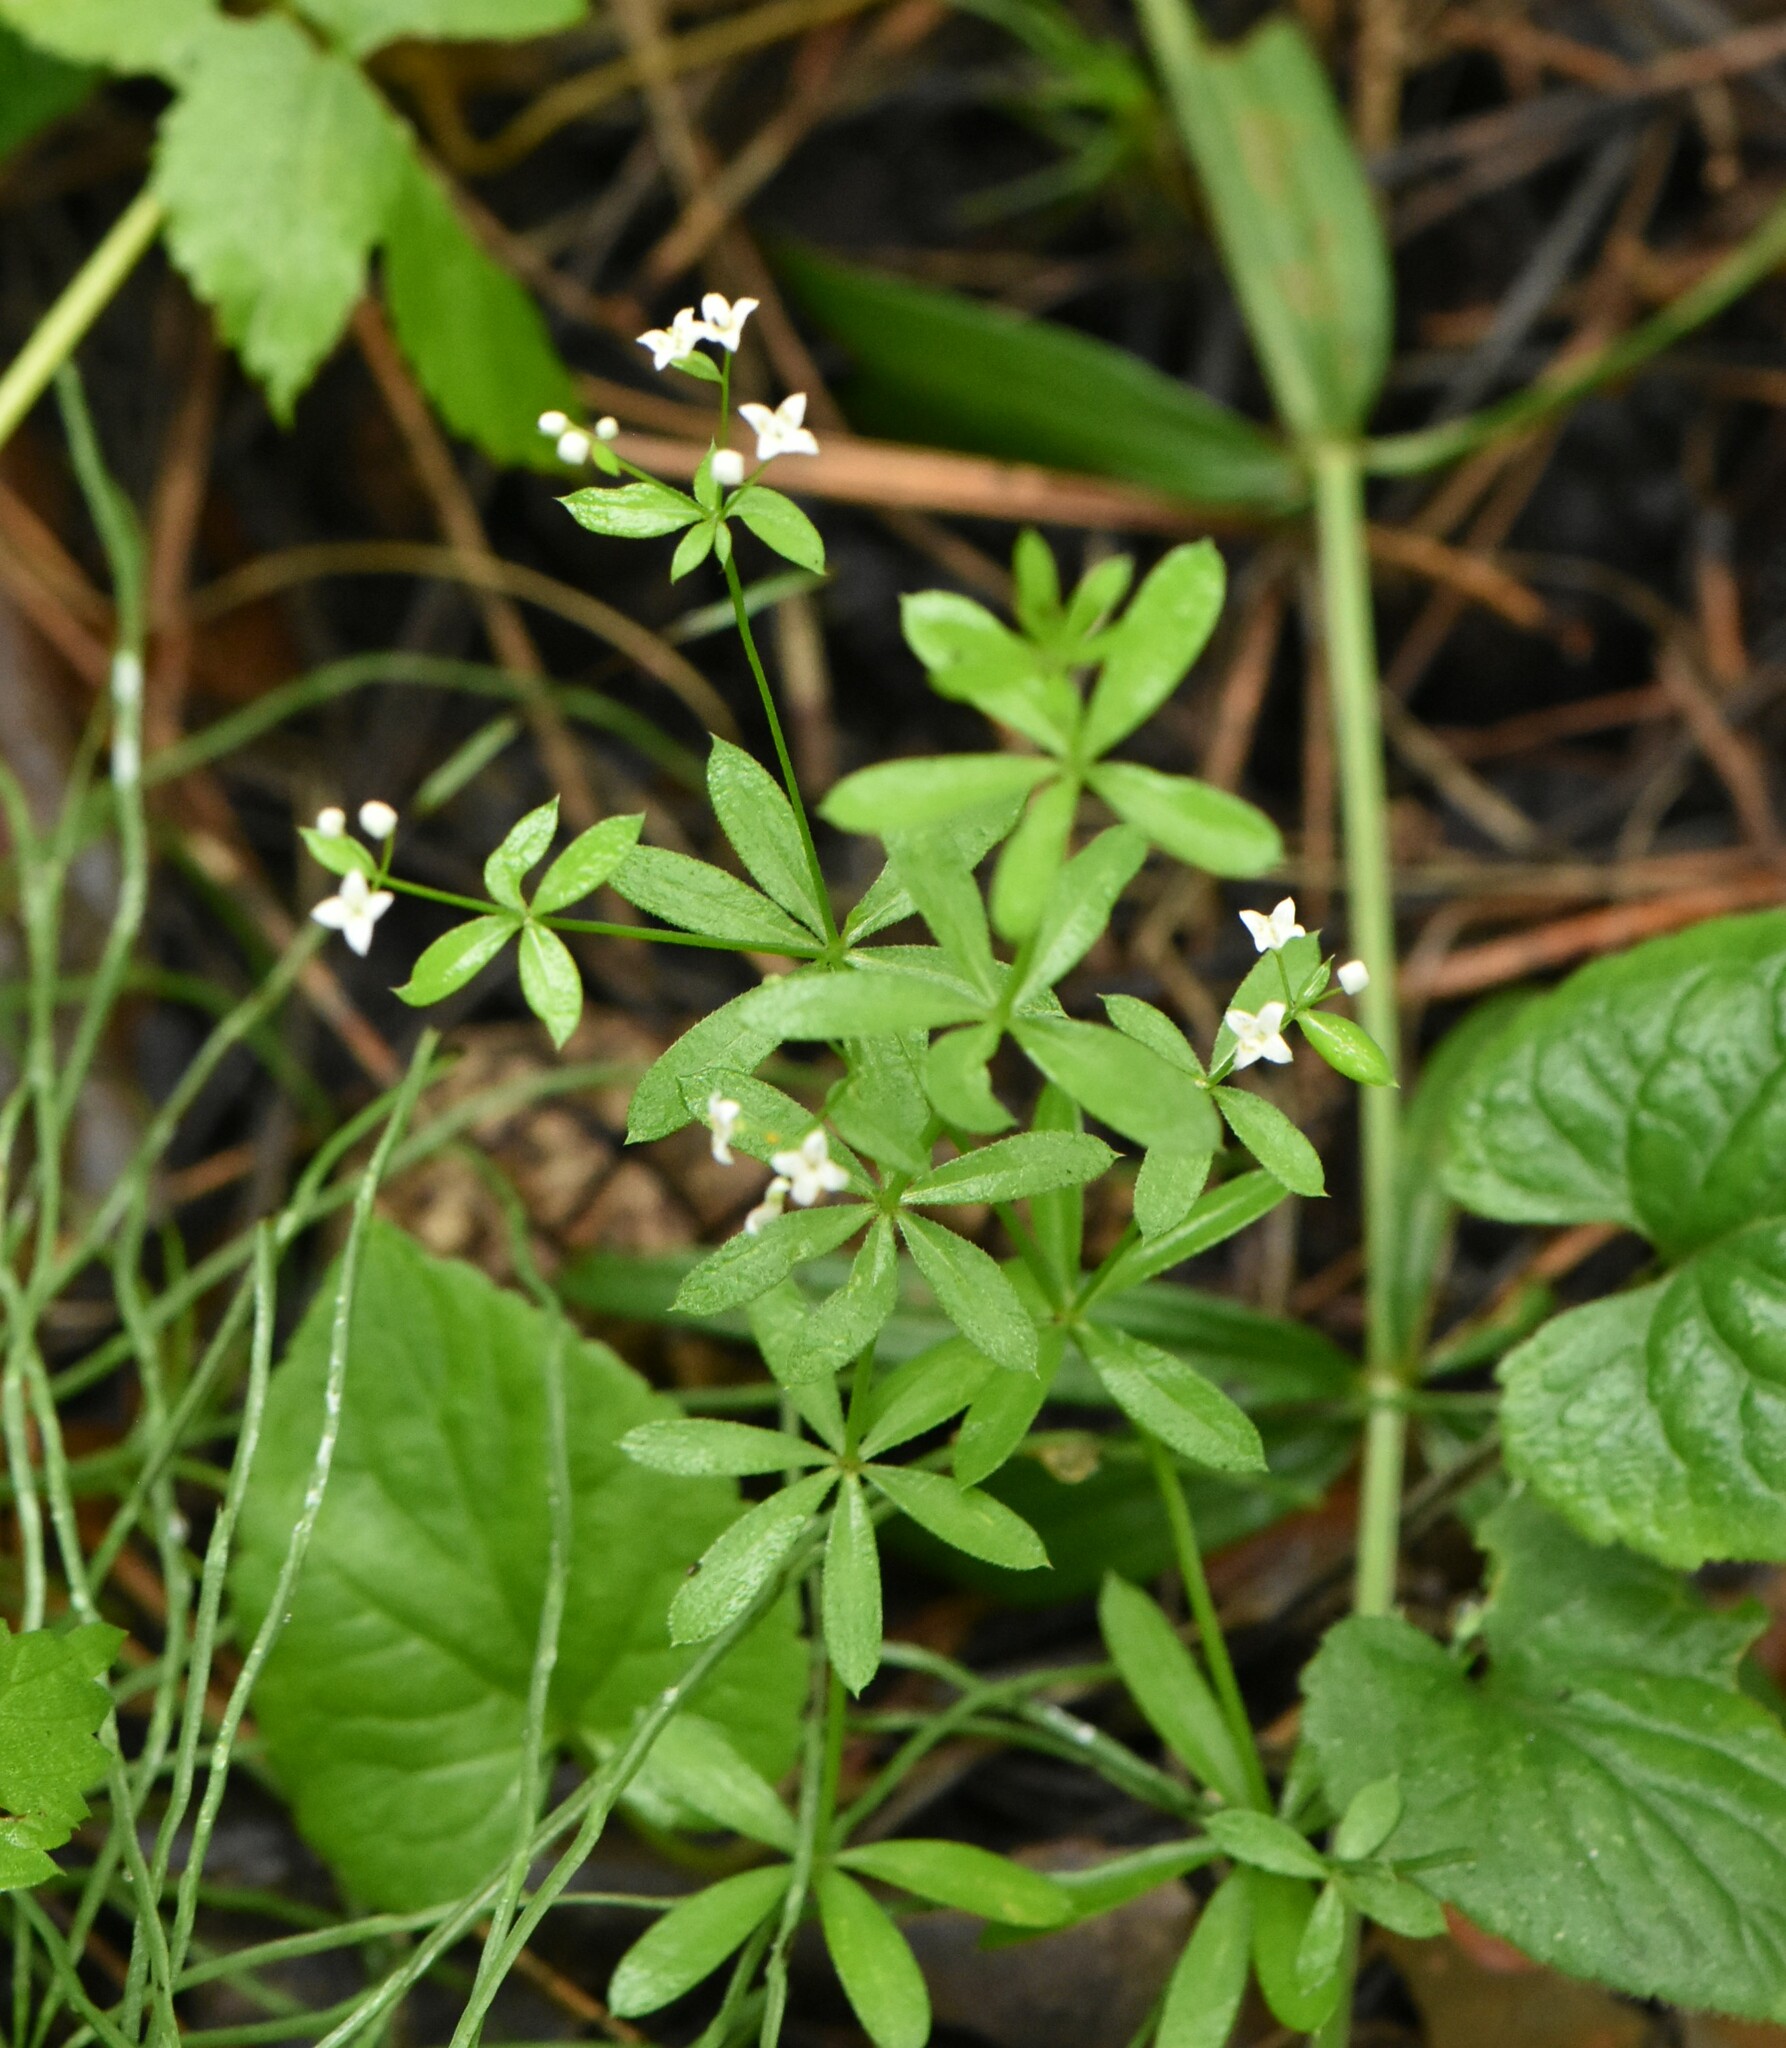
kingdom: Plantae
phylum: Tracheophyta
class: Magnoliopsida
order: Gentianales
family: Rubiaceae
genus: Galium
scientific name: Galium uliginosum
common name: Fen bedstraw
